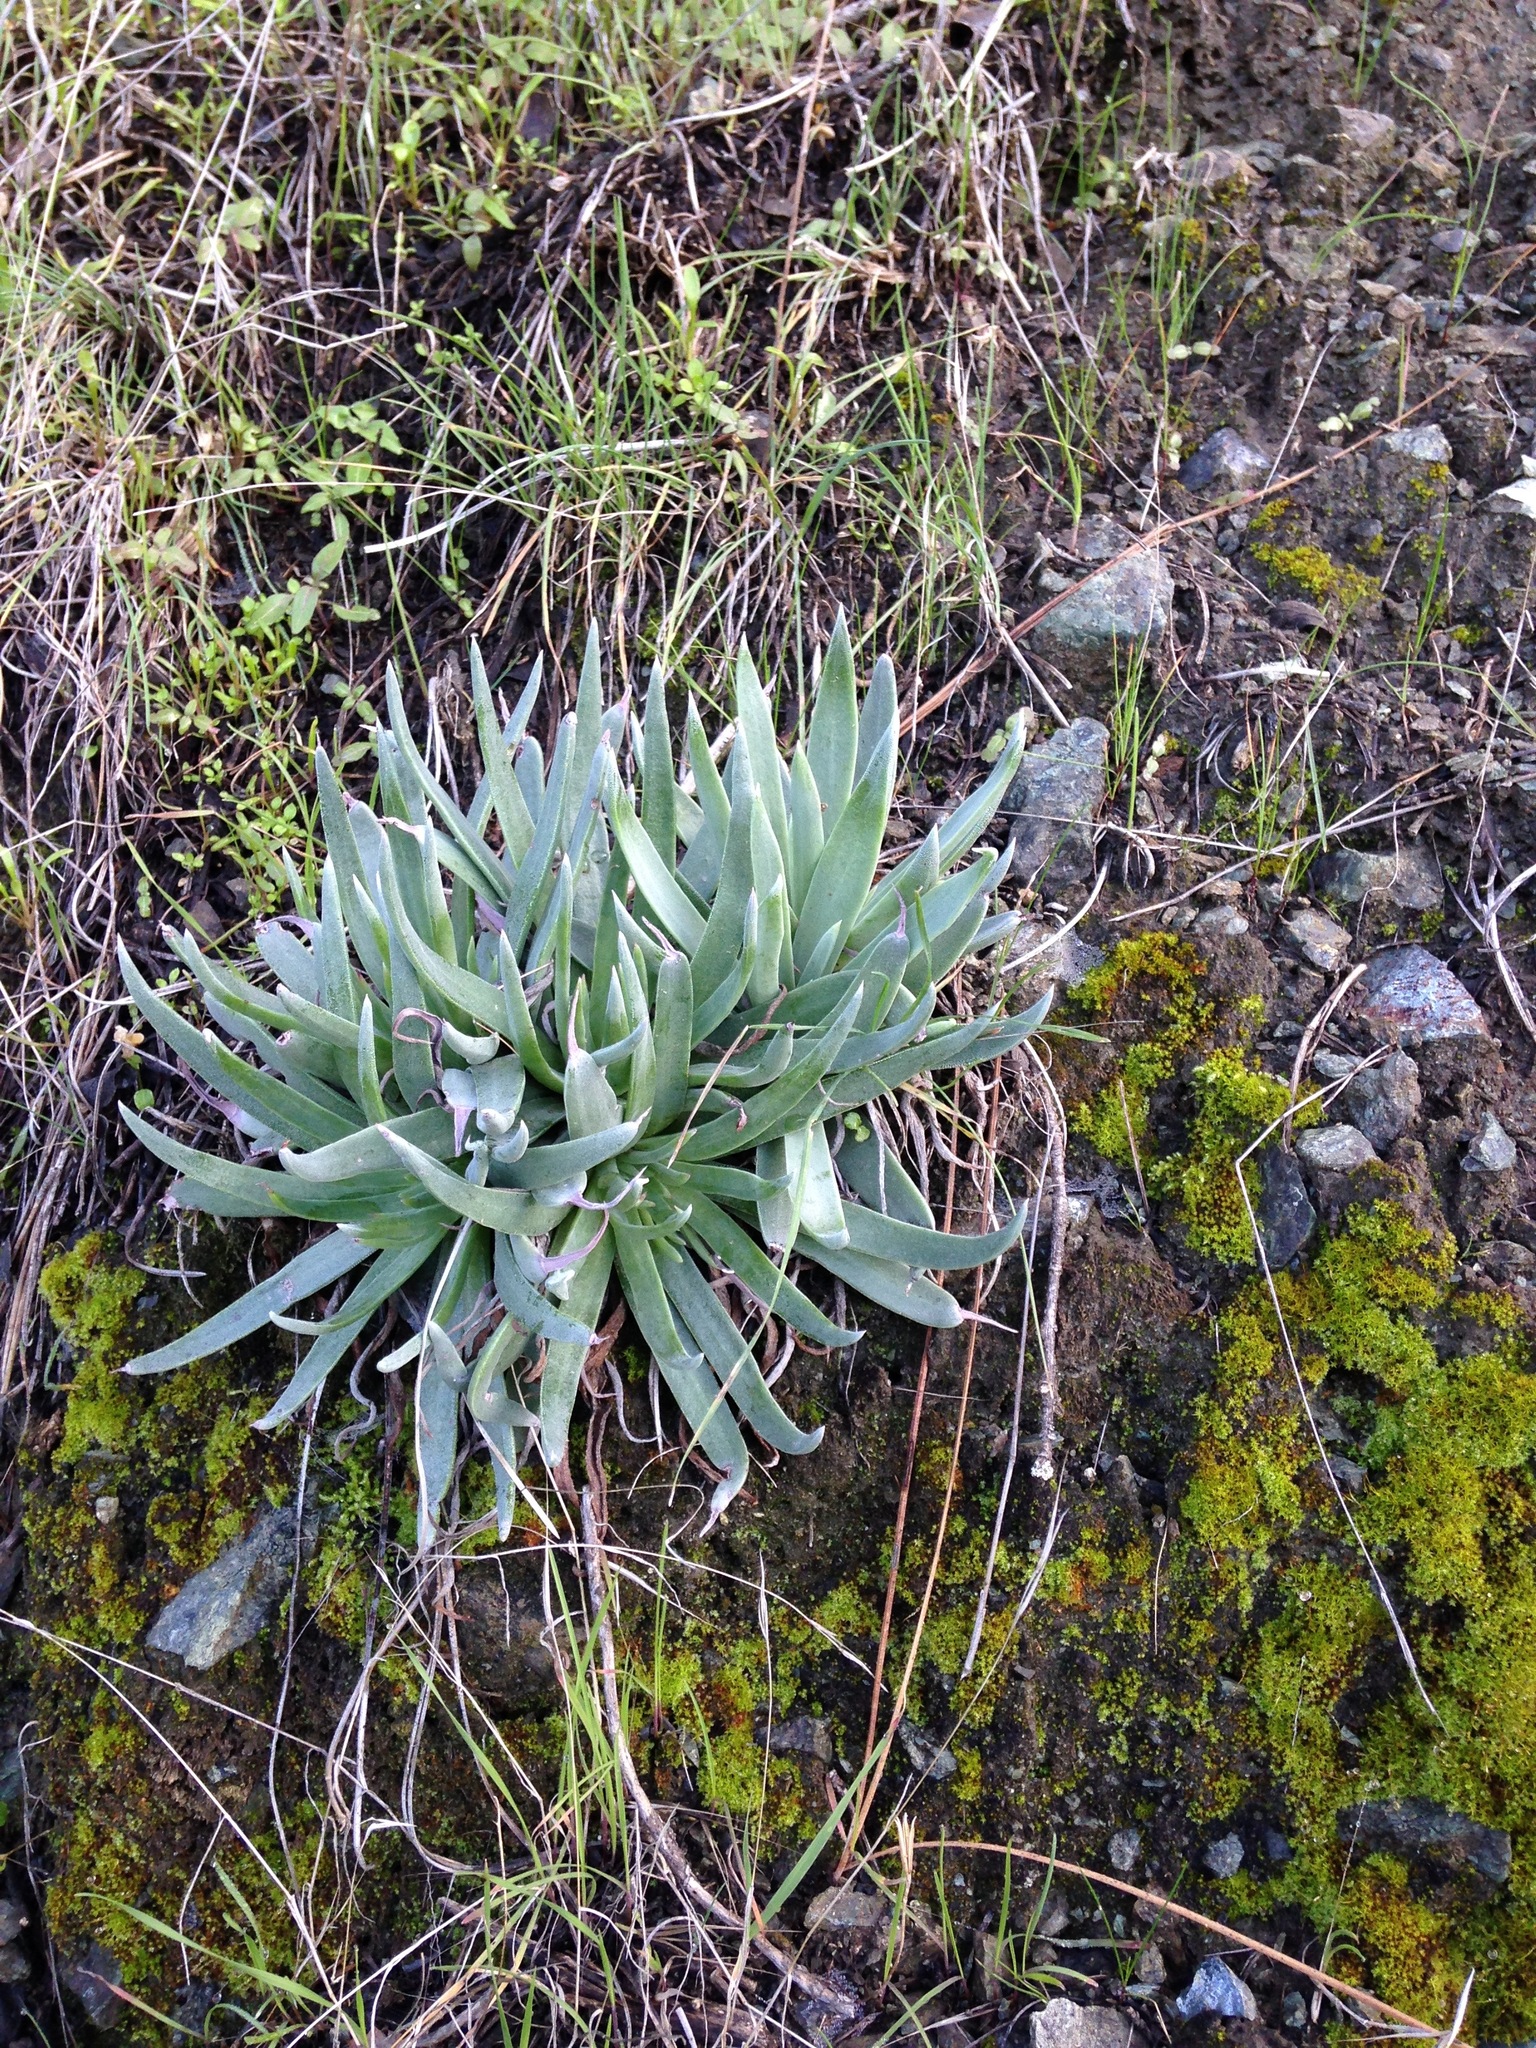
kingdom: Plantae
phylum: Tracheophyta
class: Magnoliopsida
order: Saxifragales
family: Crassulaceae
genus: Dudleya
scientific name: Dudleya lanceolata
